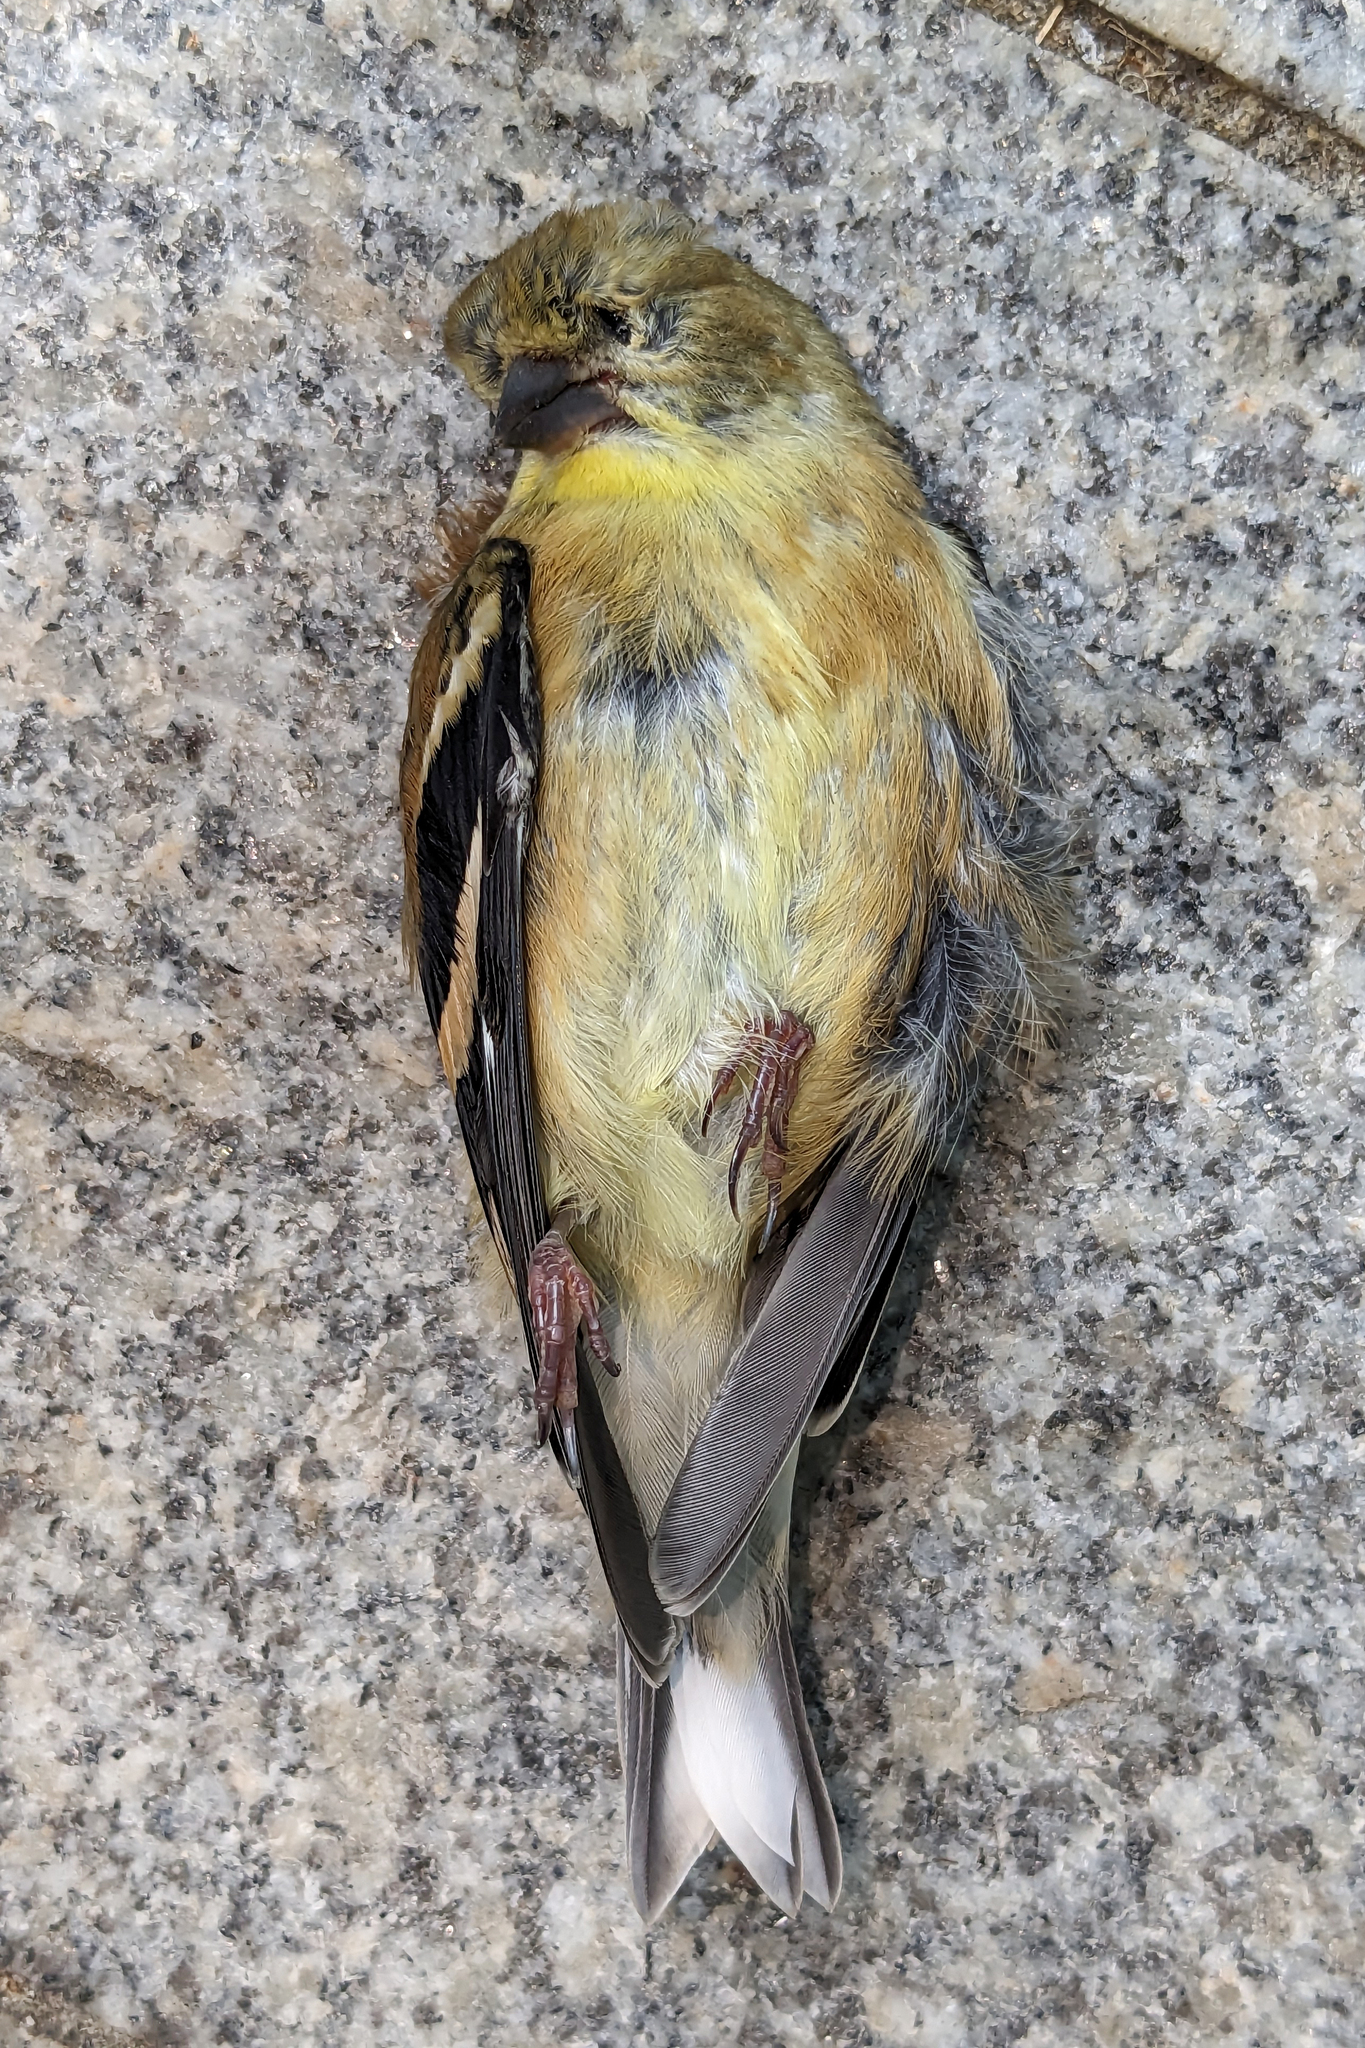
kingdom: Animalia
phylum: Chordata
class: Aves
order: Passeriformes
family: Fringillidae
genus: Spinus
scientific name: Spinus tristis
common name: American goldfinch
